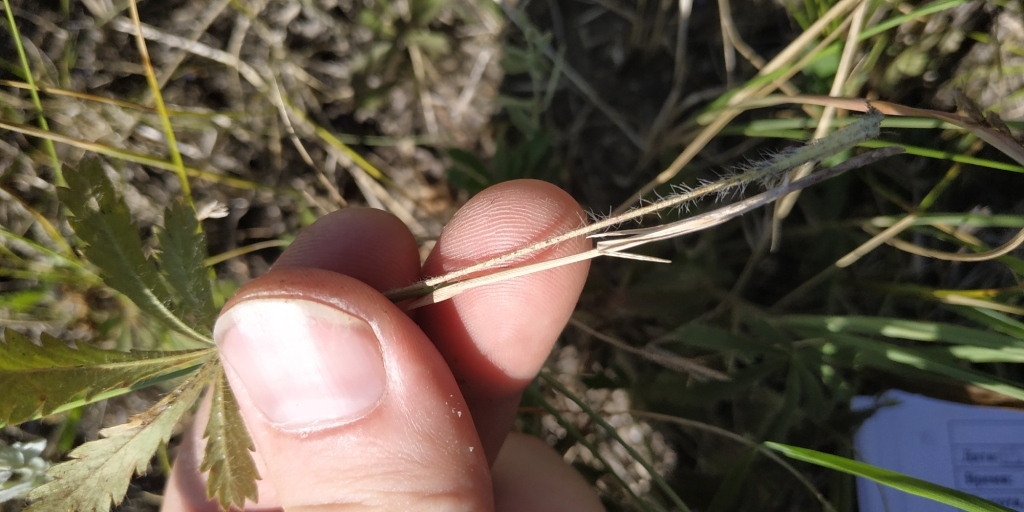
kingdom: Plantae
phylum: Tracheophyta
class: Magnoliopsida
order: Rosales
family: Rosaceae
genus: Potentilla
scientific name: Potentilla humifusa
